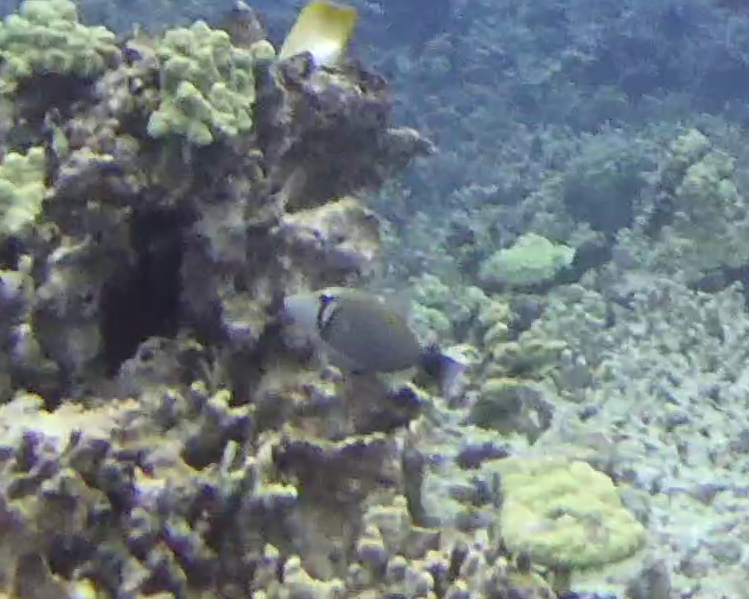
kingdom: Animalia
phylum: Chordata
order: Tetraodontiformes
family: Balistidae
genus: Sufflamen
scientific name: Sufflamen bursa
